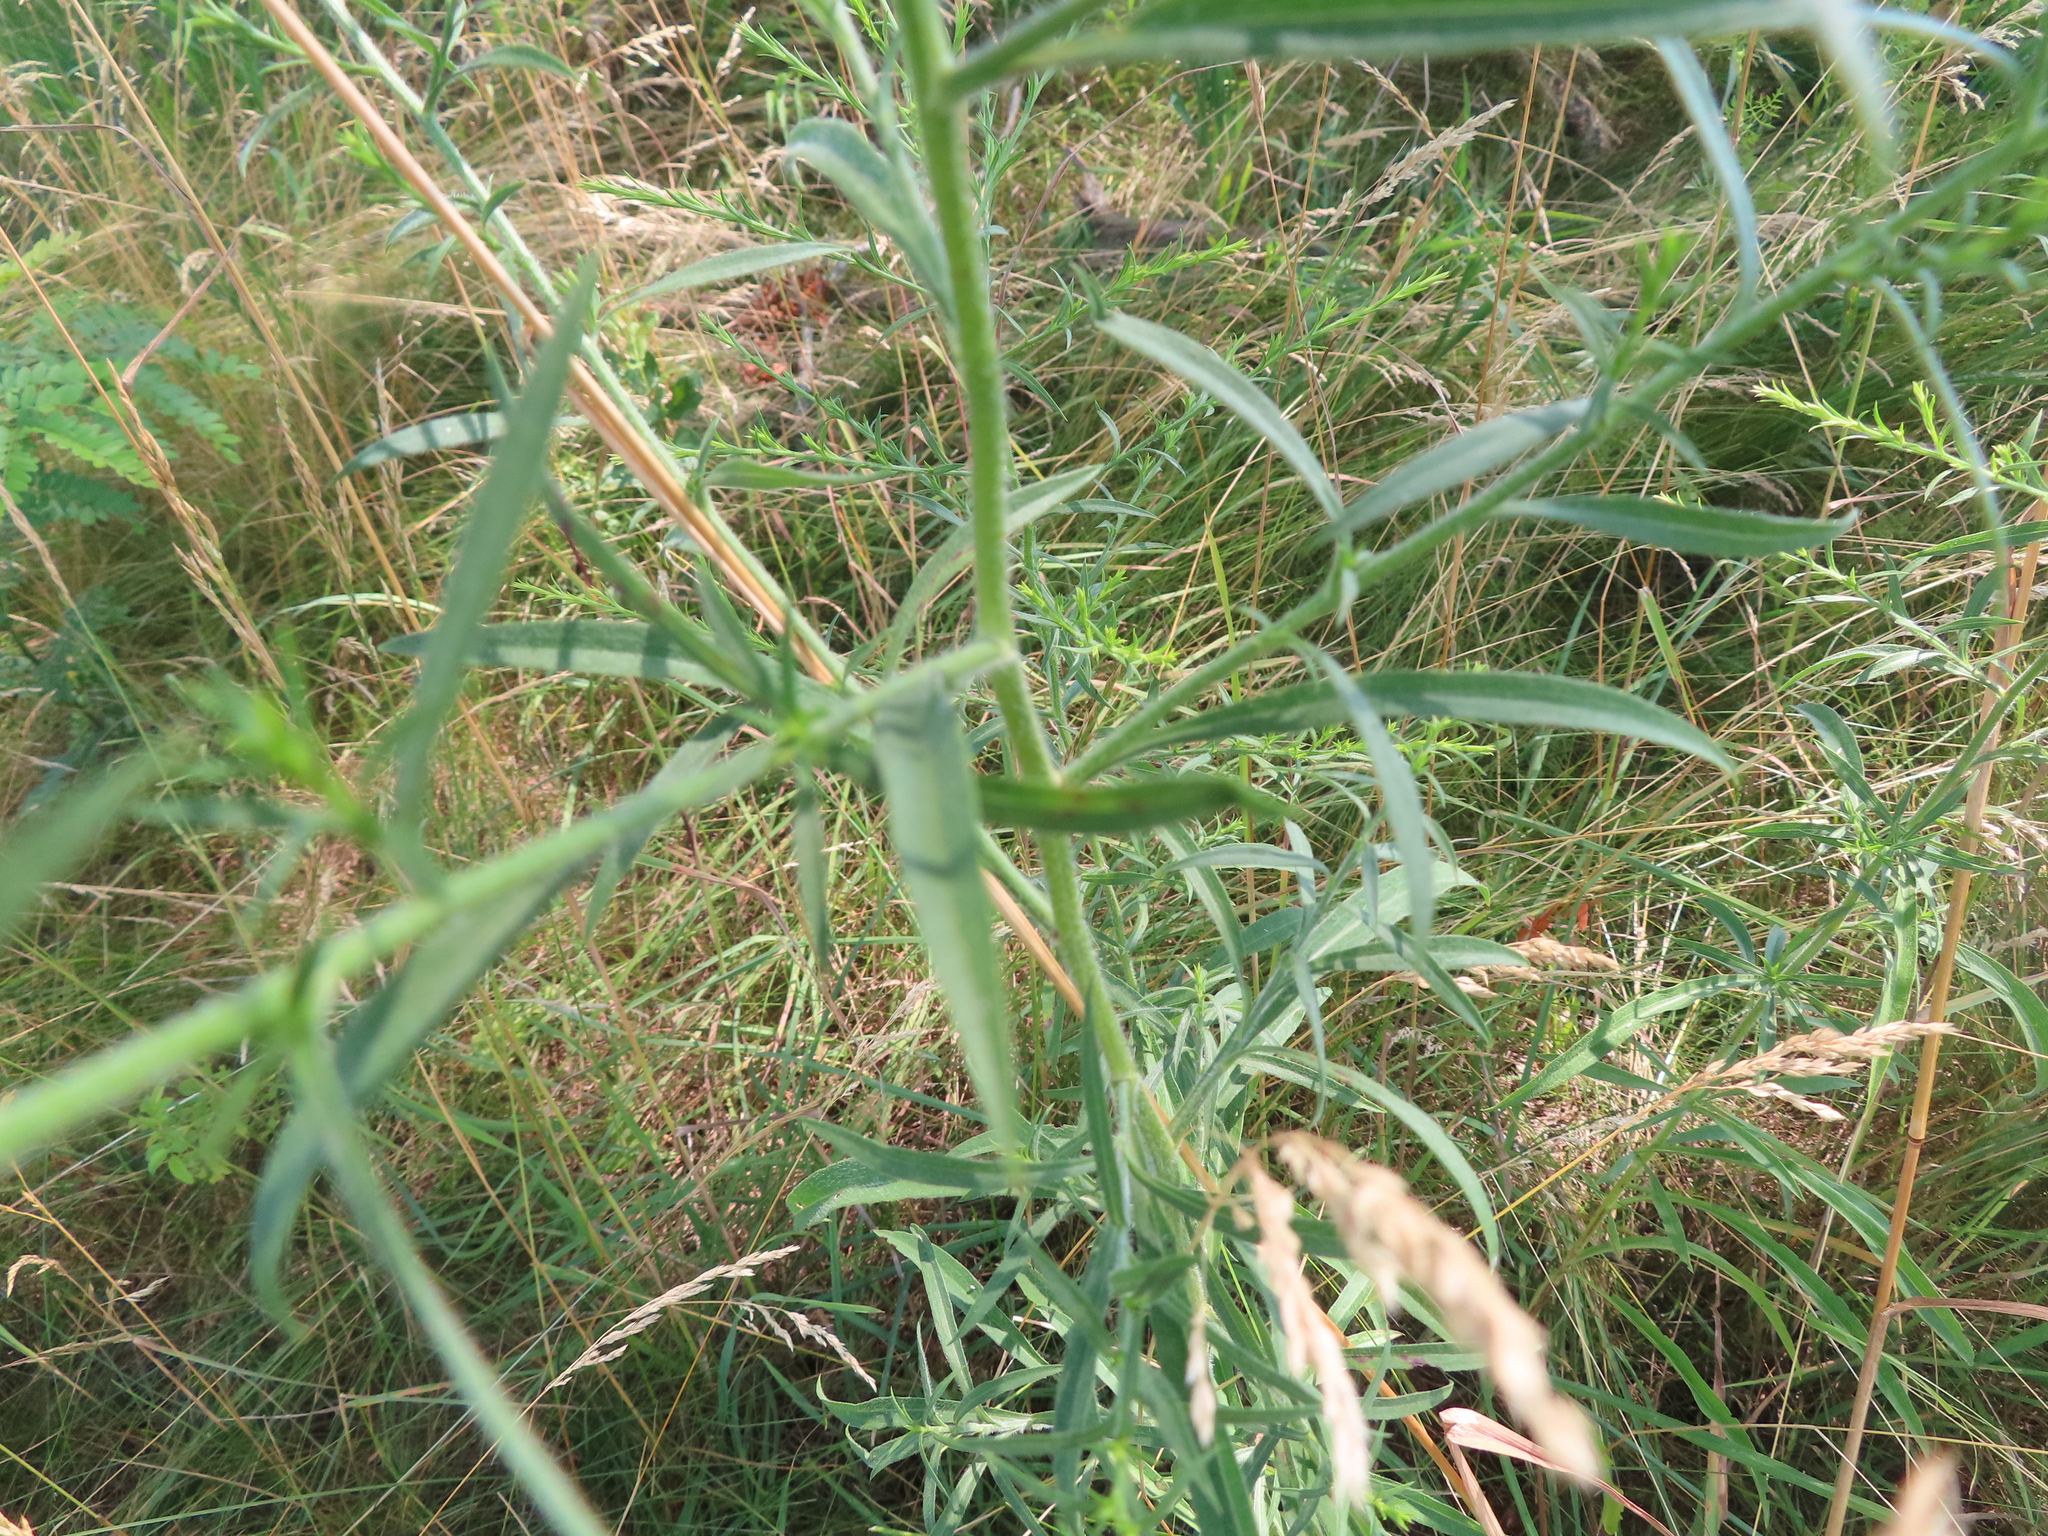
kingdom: Plantae
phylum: Tracheophyta
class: Magnoliopsida
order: Asterales
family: Asteraceae
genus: Symphyotrichum
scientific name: Symphyotrichum pilosum
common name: Awl aster
